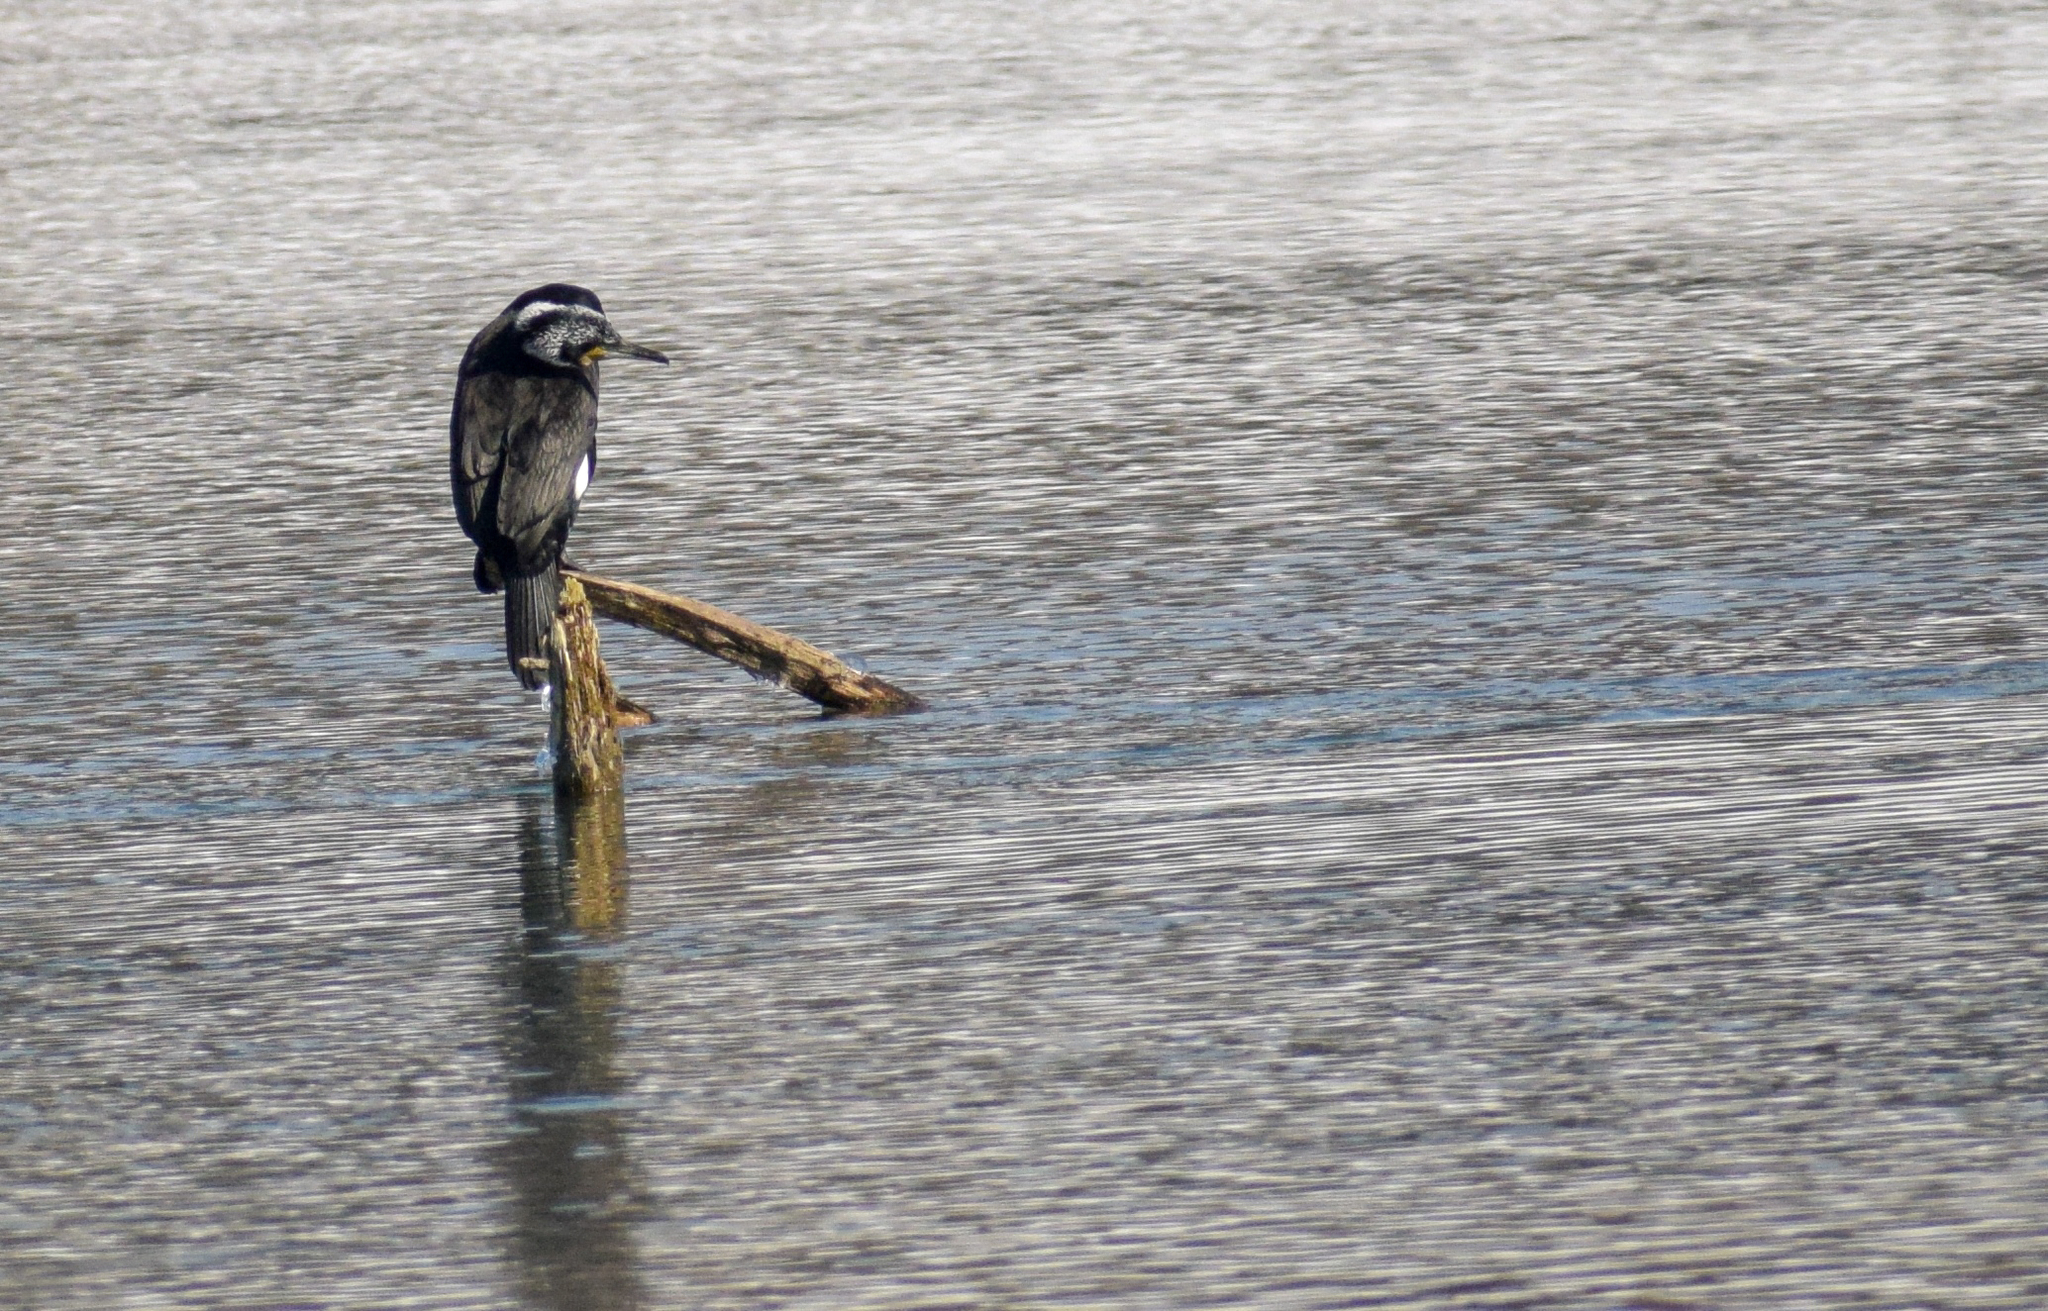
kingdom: Animalia
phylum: Chordata
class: Aves
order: Suliformes
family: Phalacrocoracidae
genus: Phalacrocorax
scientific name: Phalacrocorax carbo
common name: Great cormorant
